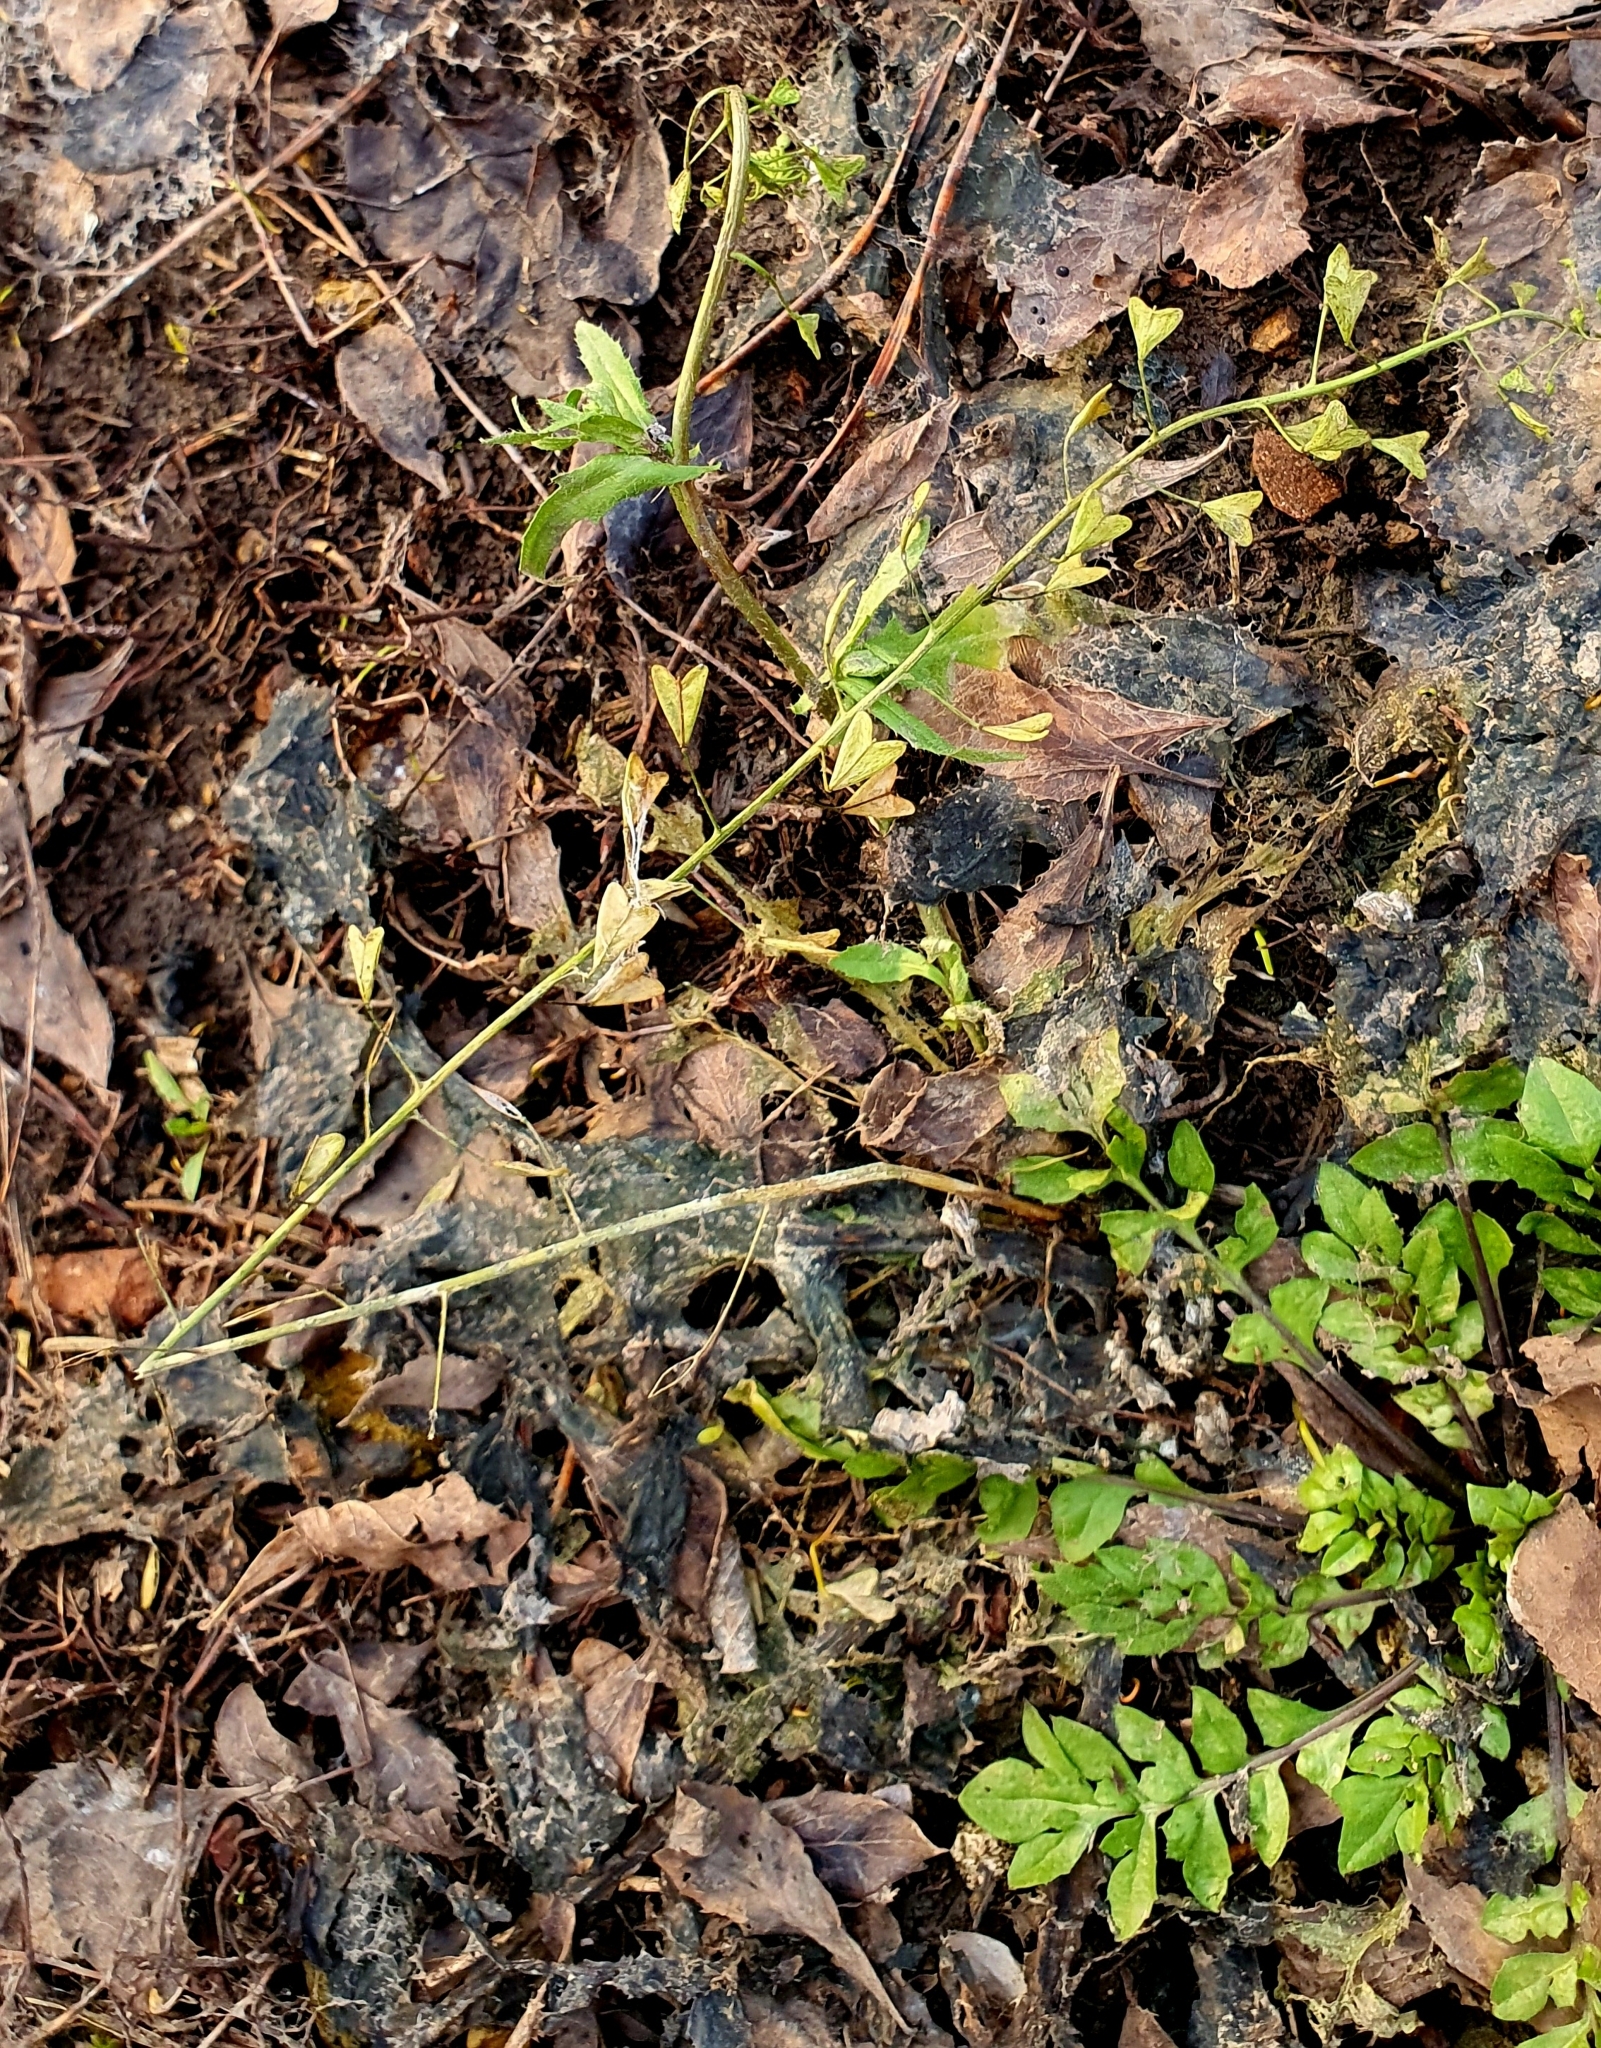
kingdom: Plantae
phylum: Tracheophyta
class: Magnoliopsida
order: Brassicales
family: Brassicaceae
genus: Capsella
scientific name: Capsella bursa-pastoris
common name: Shepherd's purse
